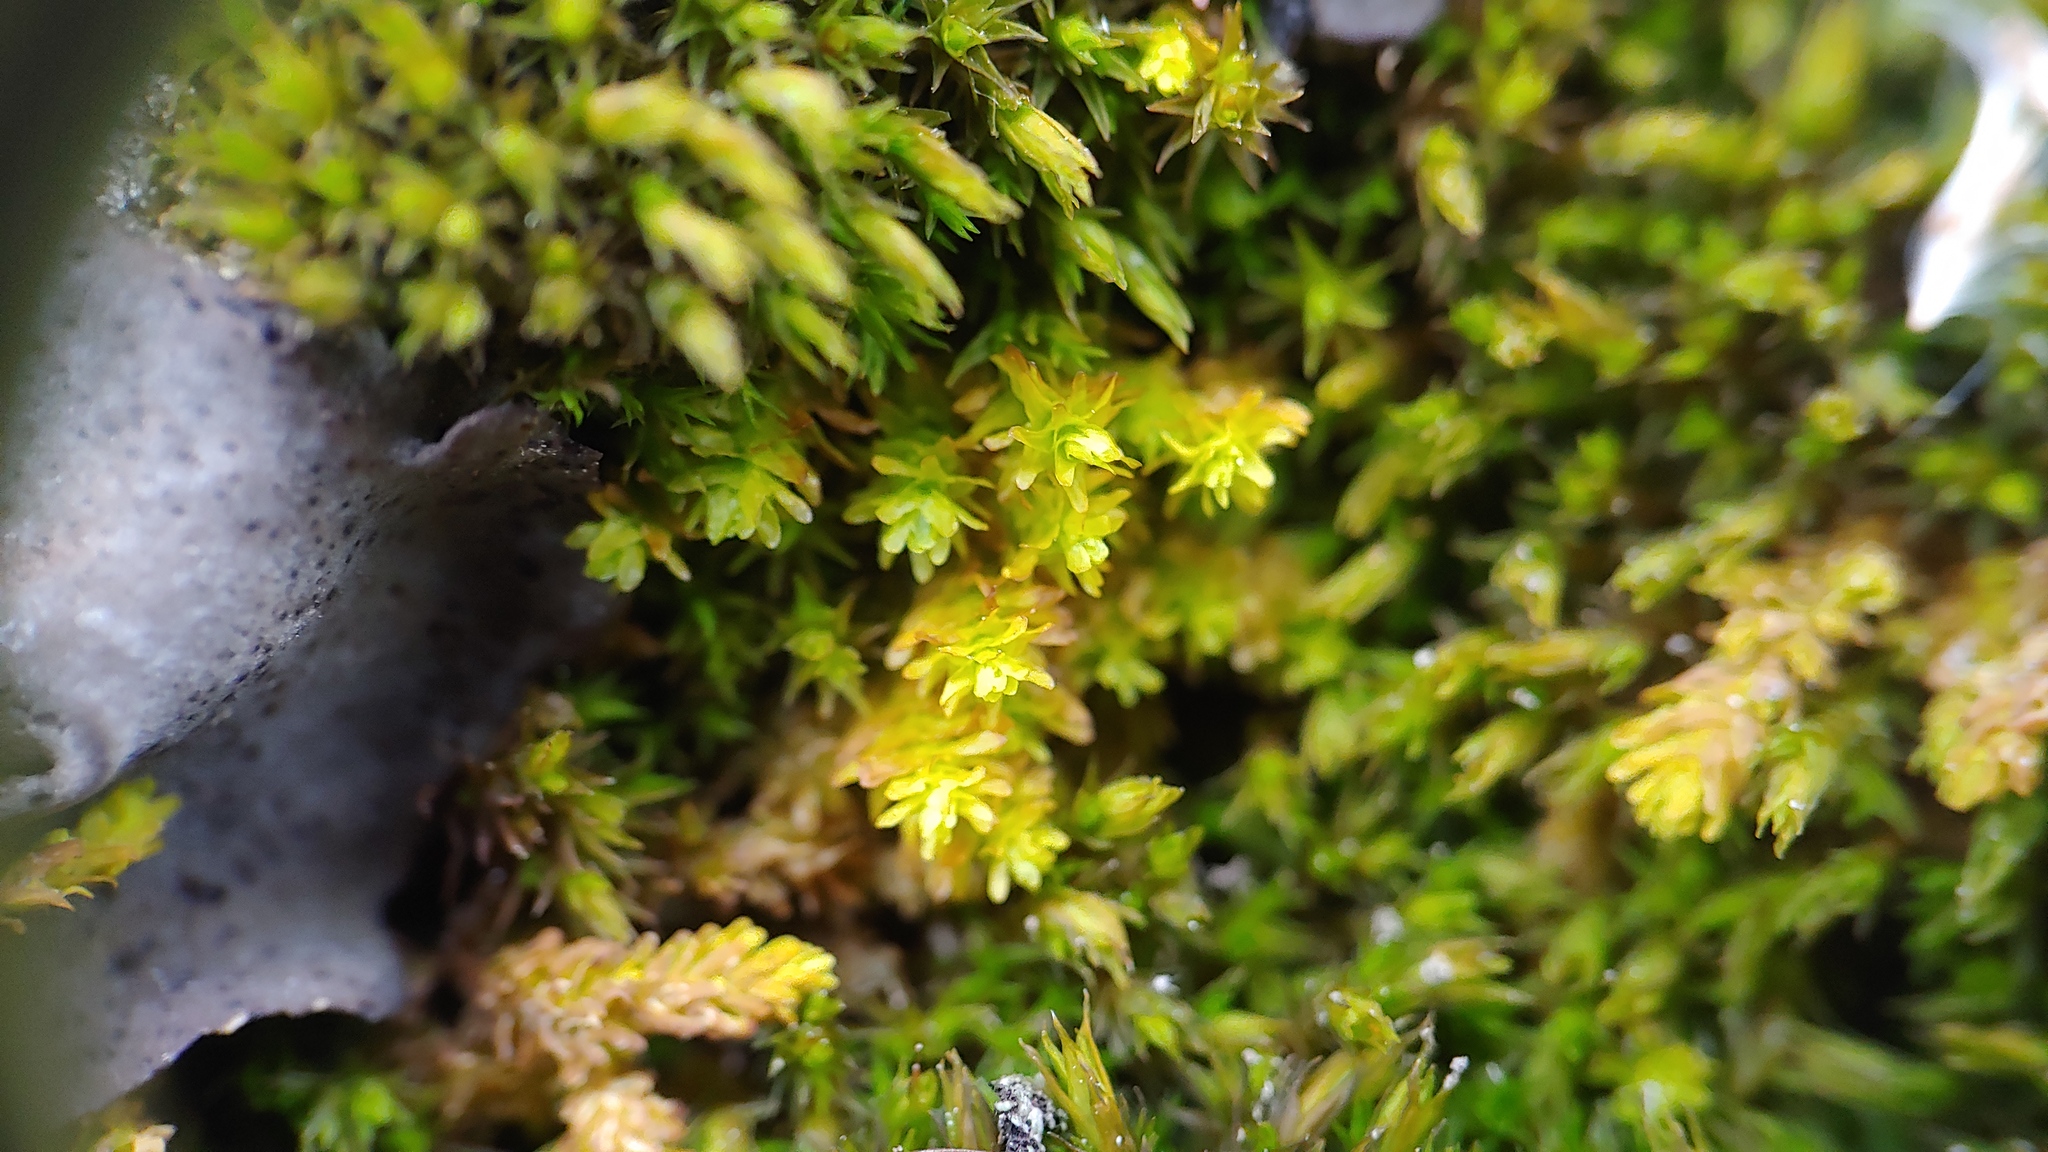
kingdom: Plantae
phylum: Bryophyta
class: Bryopsida
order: Hypnales
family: Anomodontaceae
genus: Anomodon
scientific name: Anomodon minor
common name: Blunt-leaved anomodon
